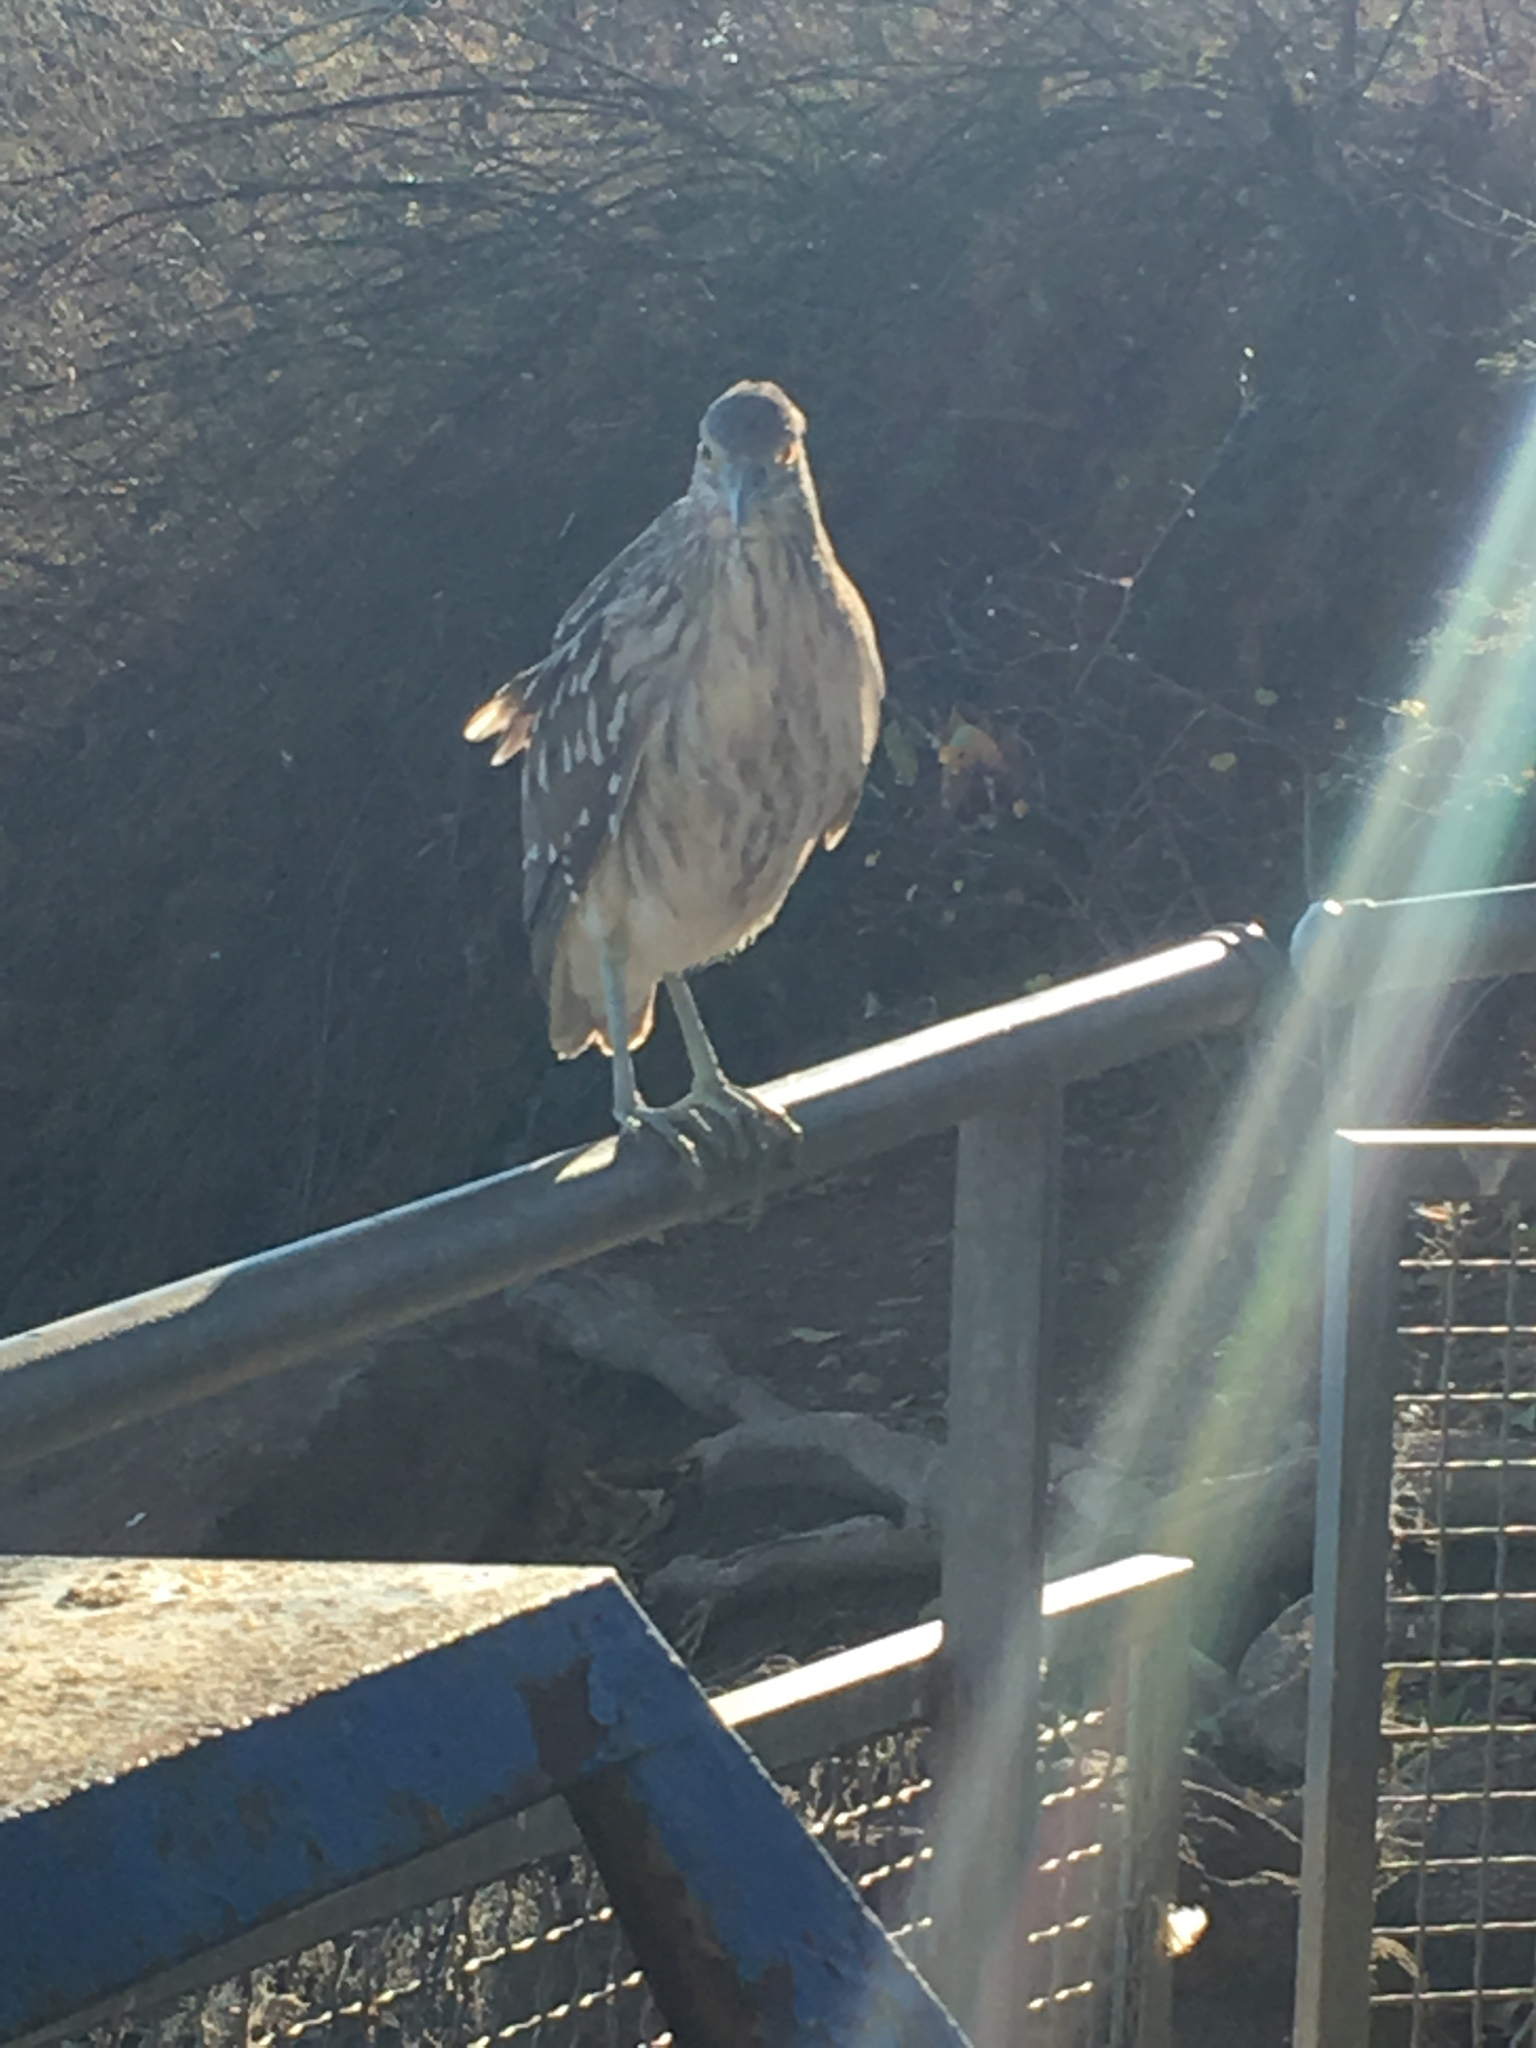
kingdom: Animalia
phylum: Chordata
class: Aves
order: Pelecaniformes
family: Ardeidae
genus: Nycticorax
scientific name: Nycticorax nycticorax
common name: Black-crowned night heron
